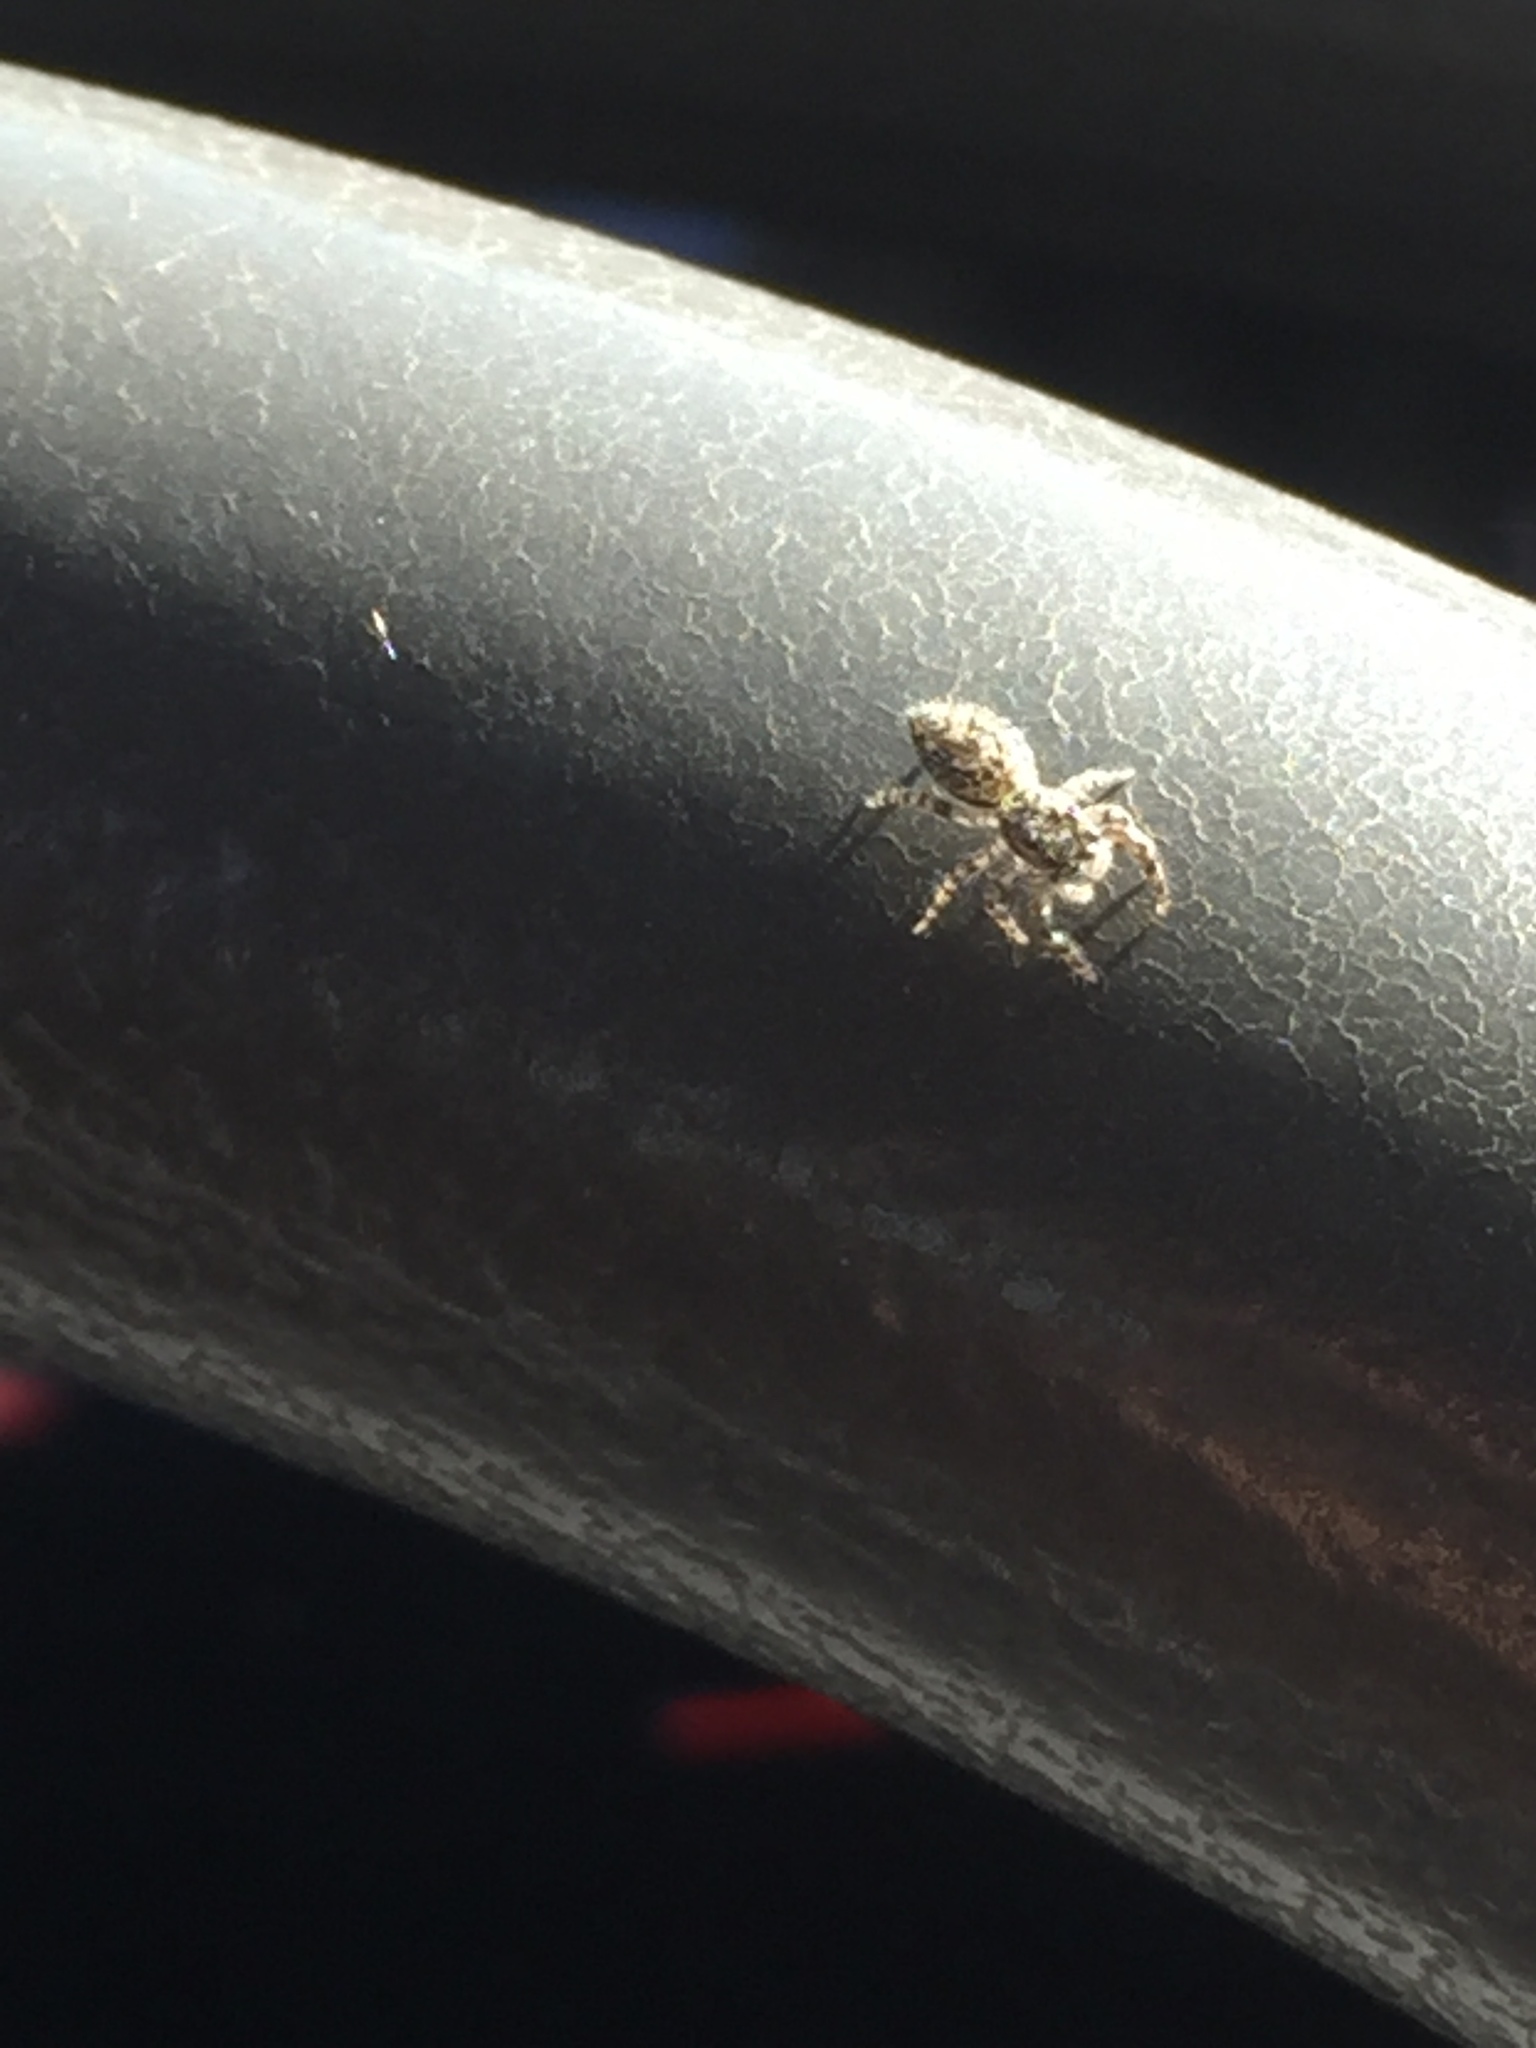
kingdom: Animalia
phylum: Arthropoda
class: Arachnida
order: Araneae
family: Salticidae
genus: Platycryptus
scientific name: Platycryptus undatus
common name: Tan jumping spider
